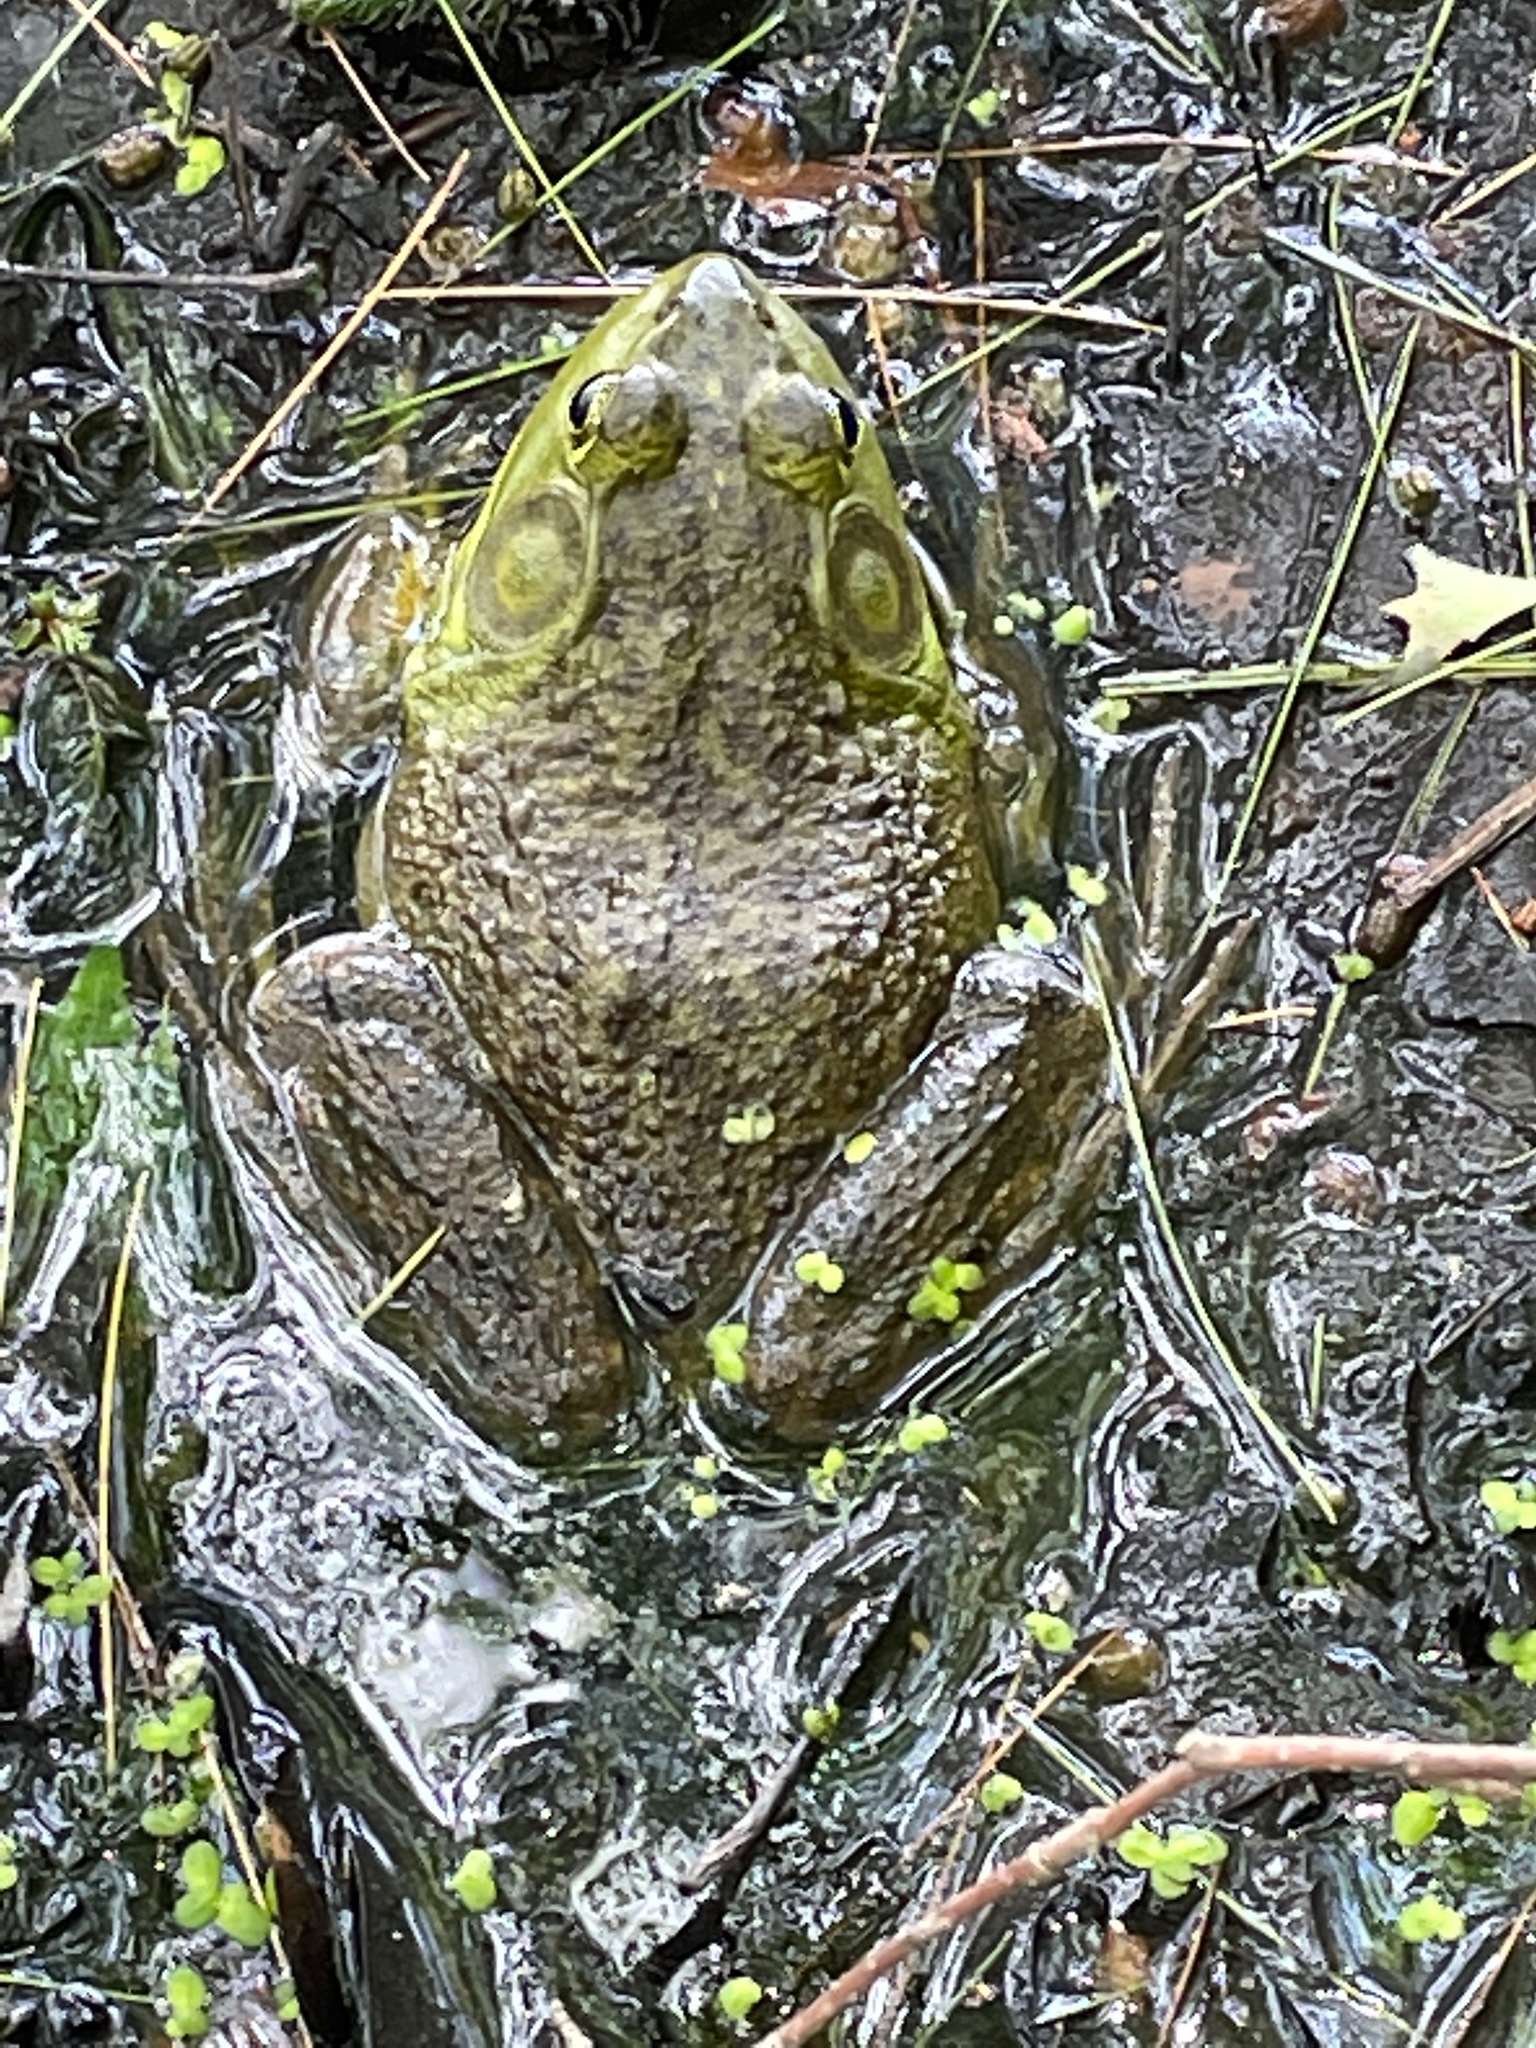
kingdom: Animalia
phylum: Chordata
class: Amphibia
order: Anura
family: Ranidae
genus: Lithobates
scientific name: Lithobates catesbeianus
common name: American bullfrog
